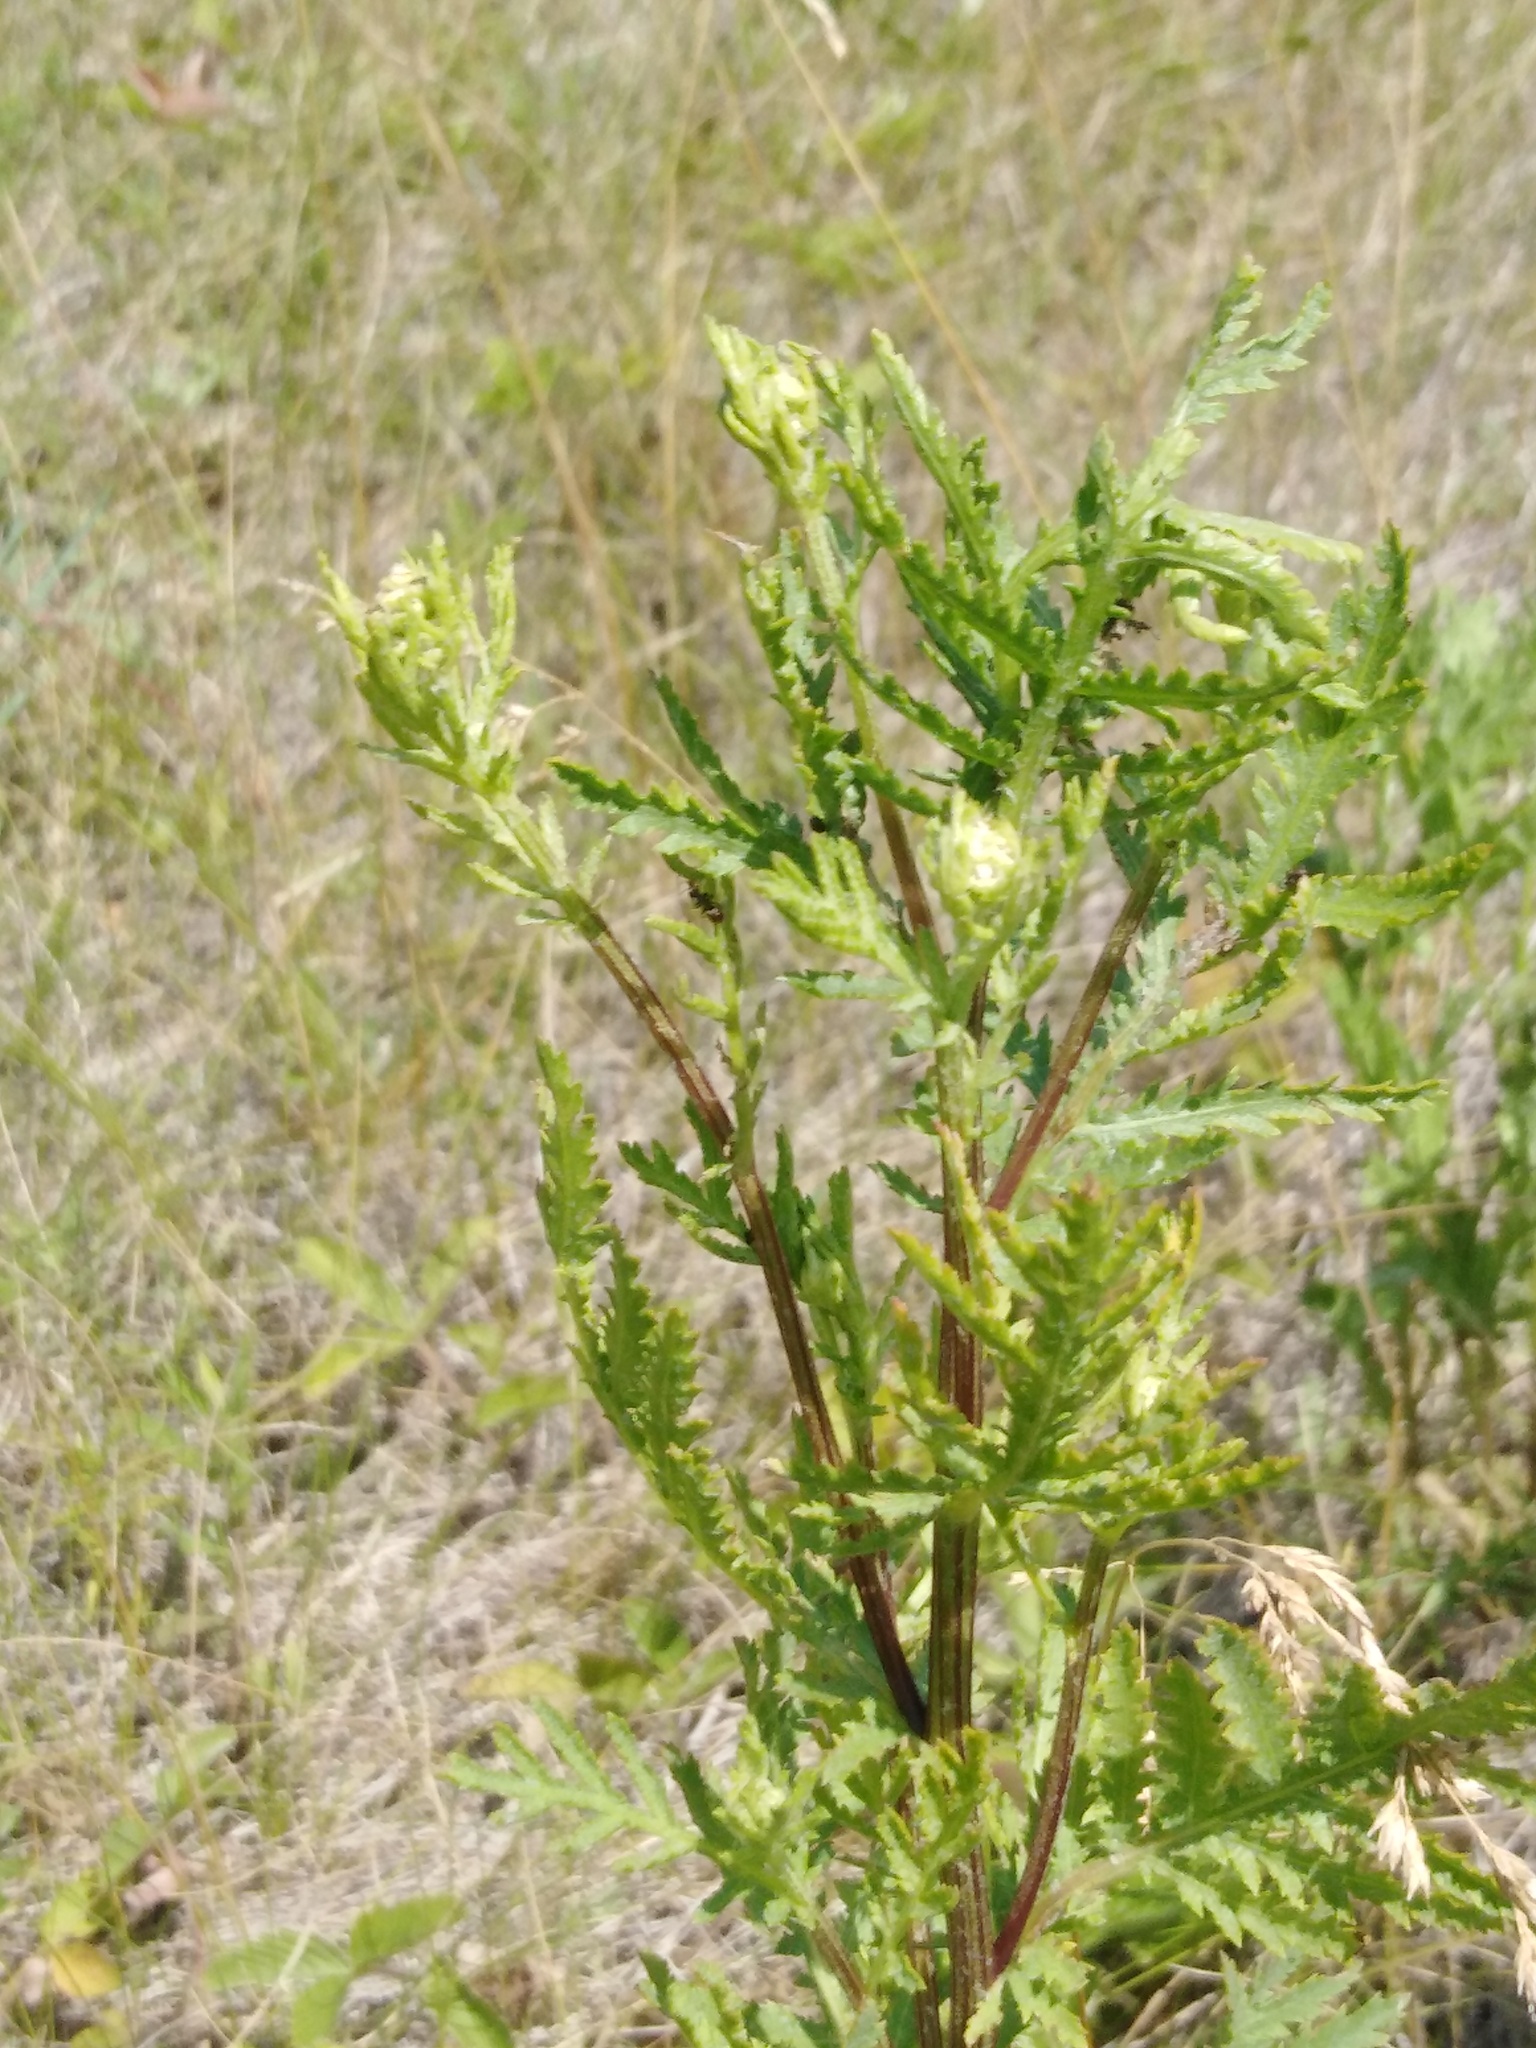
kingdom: Plantae
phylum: Tracheophyta
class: Magnoliopsida
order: Asterales
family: Asteraceae
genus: Tanacetum
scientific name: Tanacetum vulgare
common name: Common tansy
